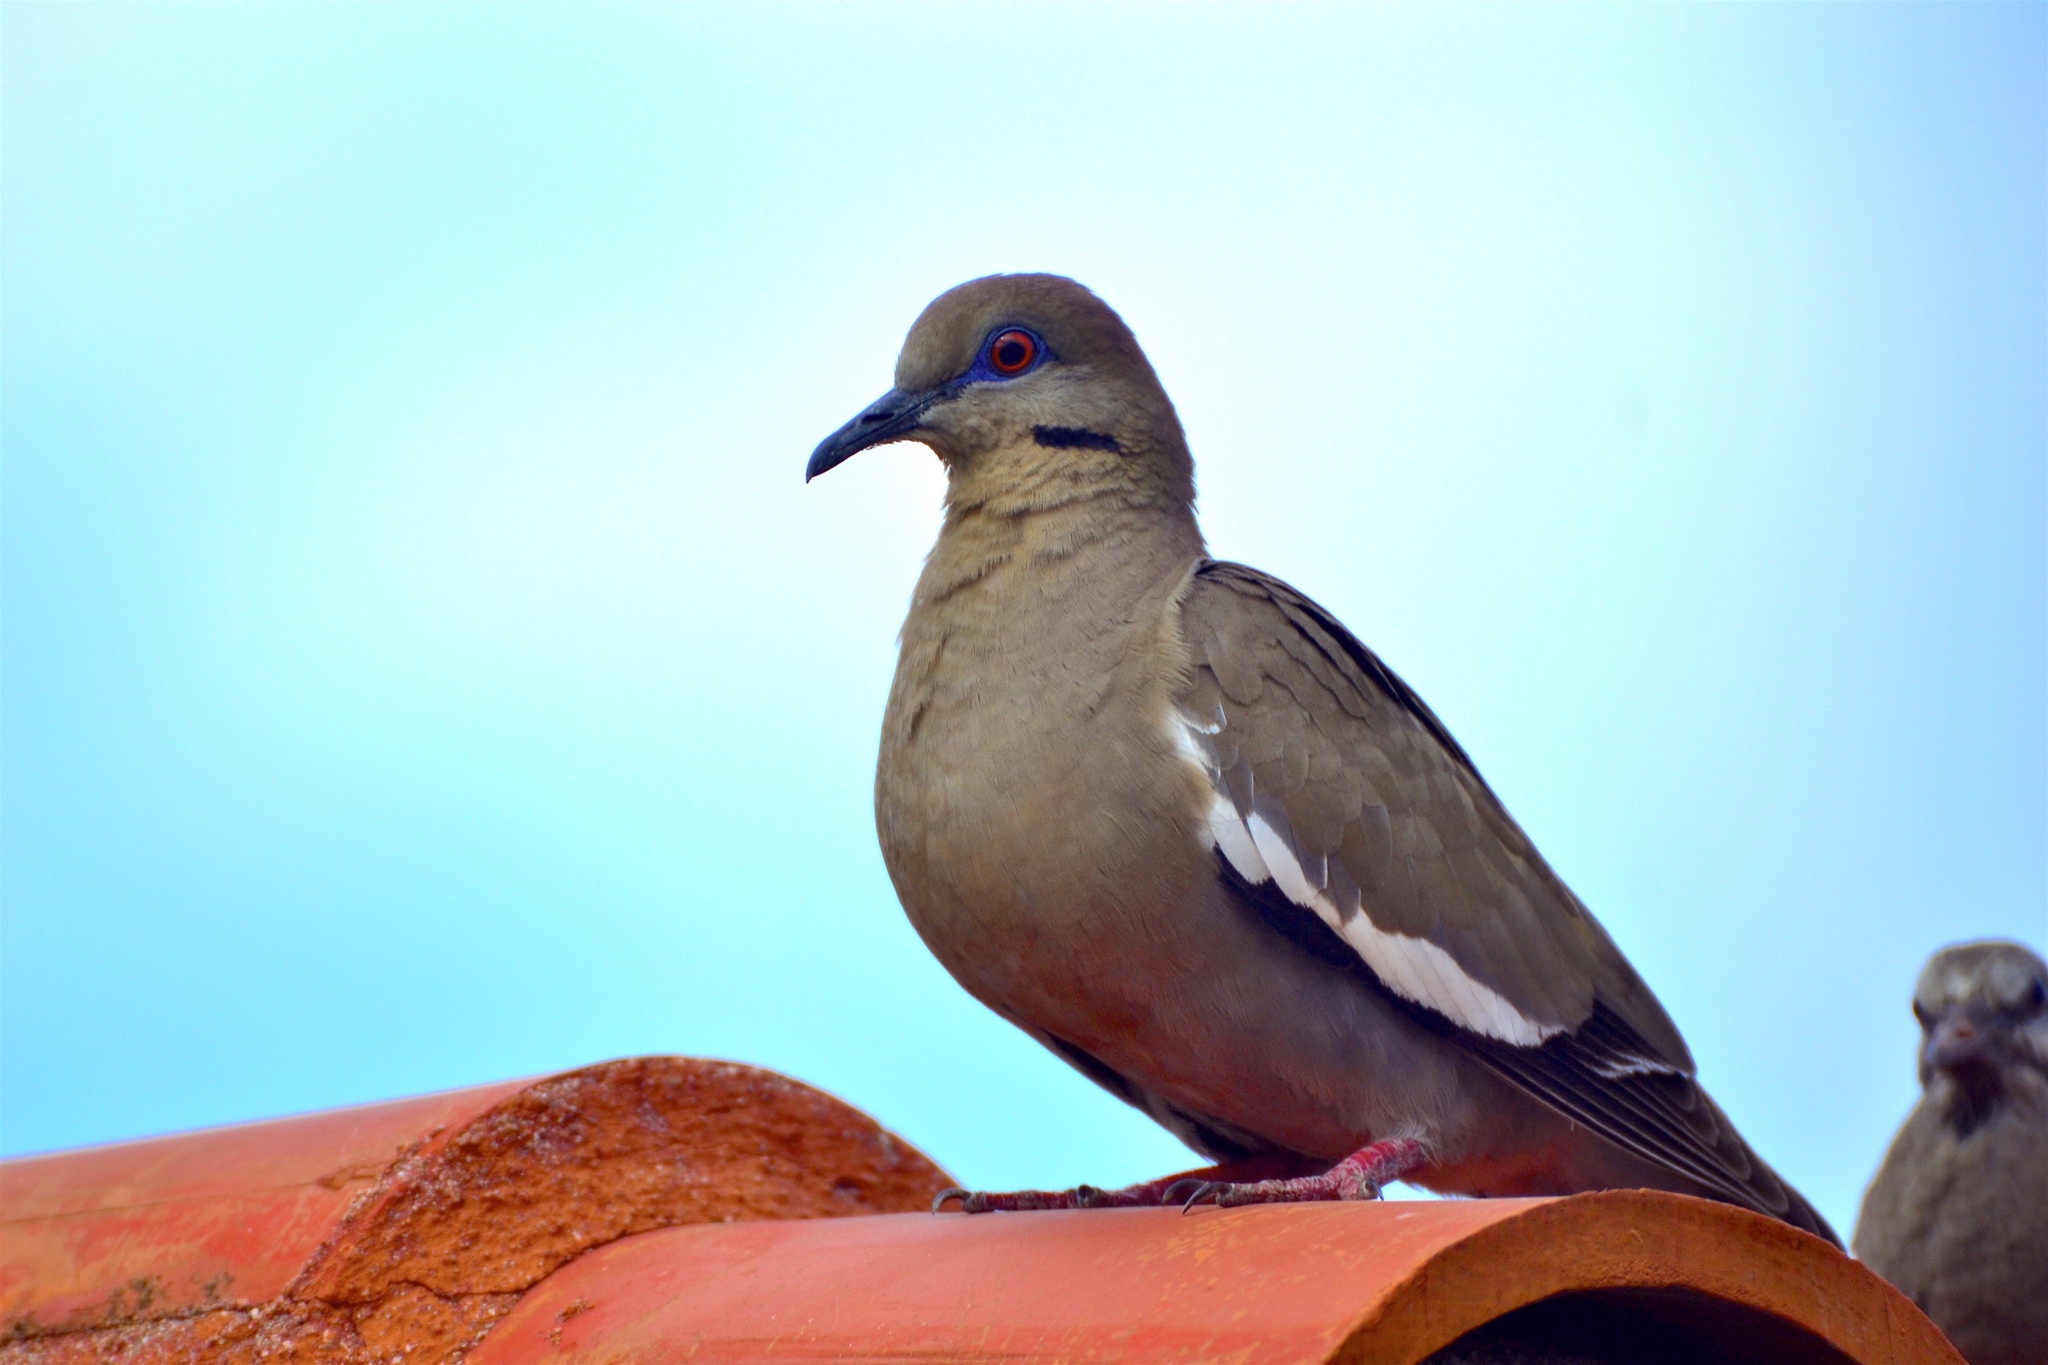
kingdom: Animalia
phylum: Chordata
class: Aves
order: Columbiformes
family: Columbidae
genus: Zenaida
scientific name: Zenaida asiatica
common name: White-winged dove
